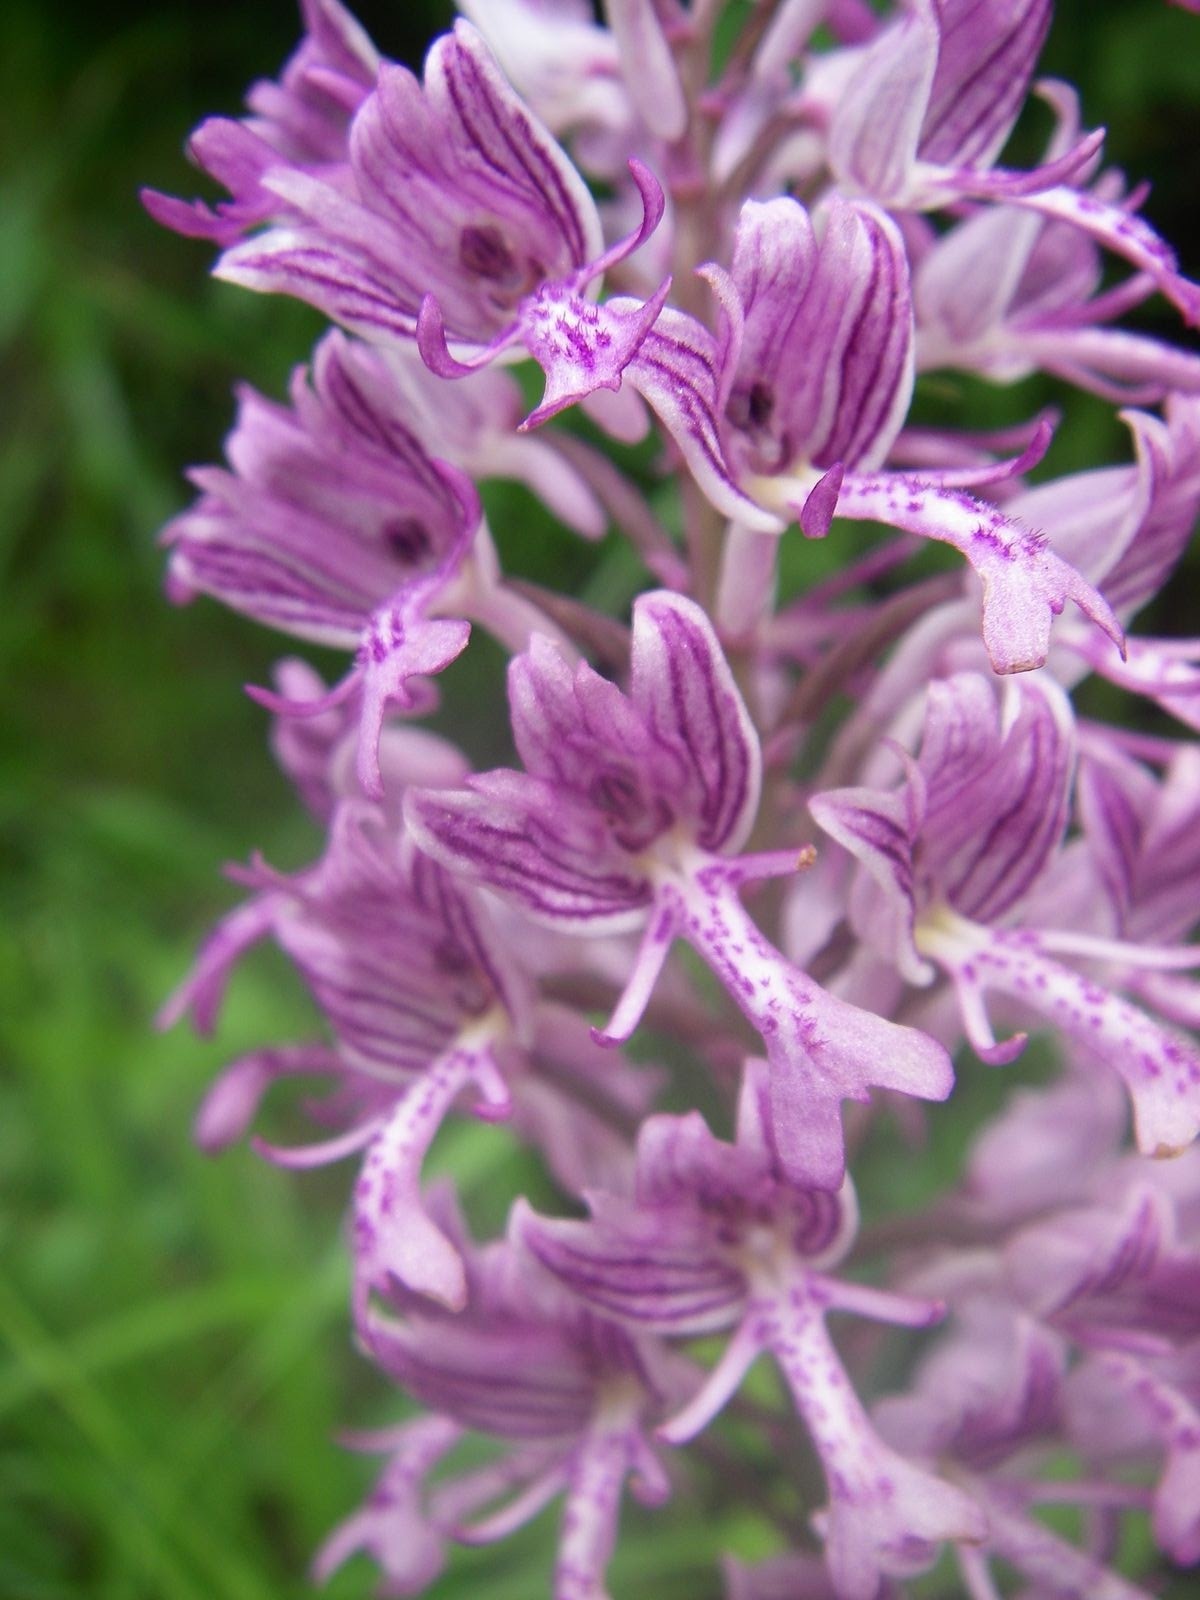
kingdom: Plantae
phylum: Tracheophyta
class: Liliopsida
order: Asparagales
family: Orchidaceae
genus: Orchis
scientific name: Orchis militaris
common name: Military orchid
